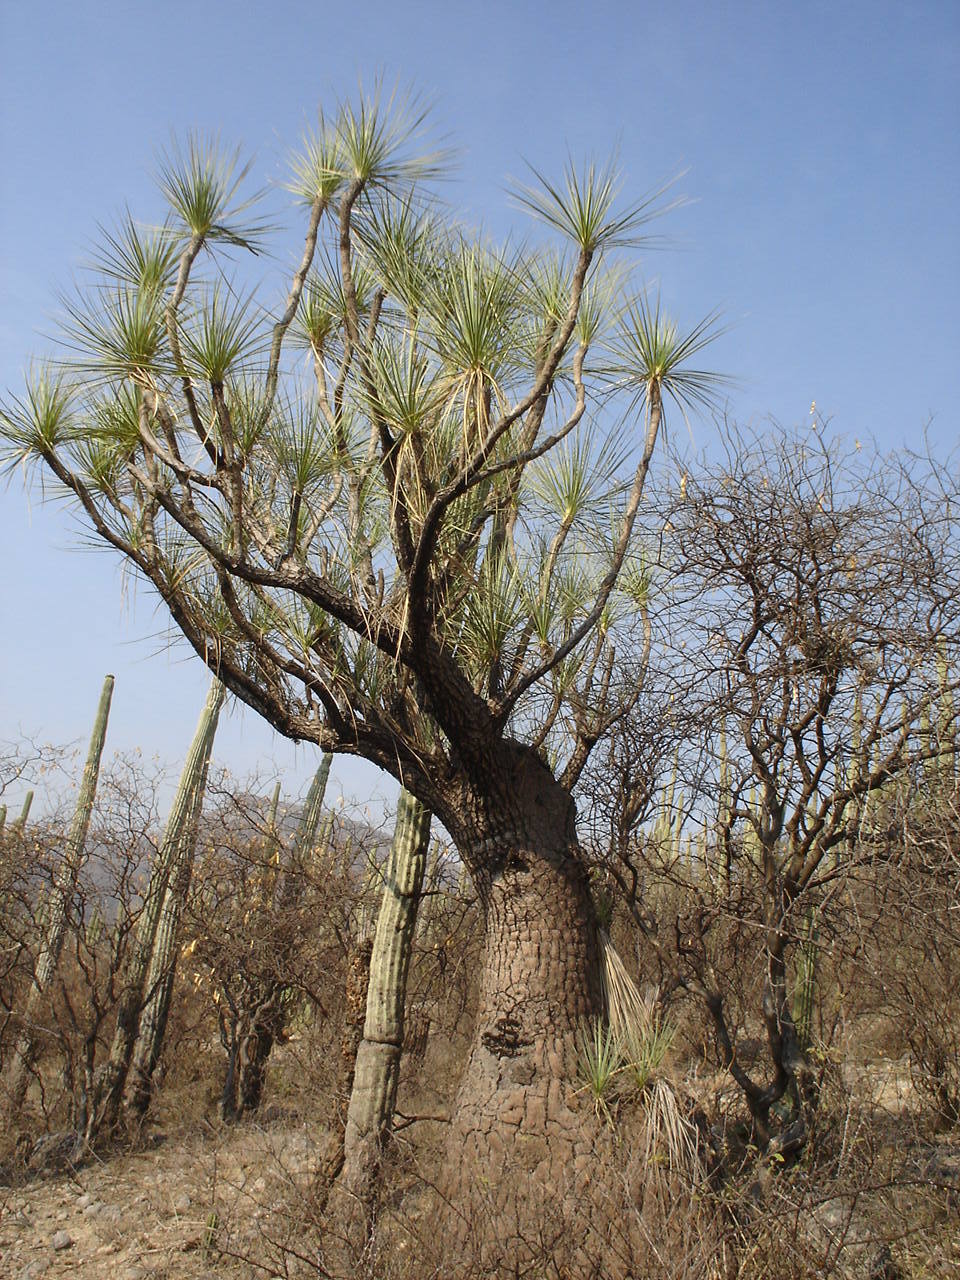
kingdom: Plantae
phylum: Tracheophyta
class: Liliopsida
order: Asparagales
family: Asparagaceae
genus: Beaucarnea
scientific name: Beaucarnea gracilis
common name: Ponytail  palm
